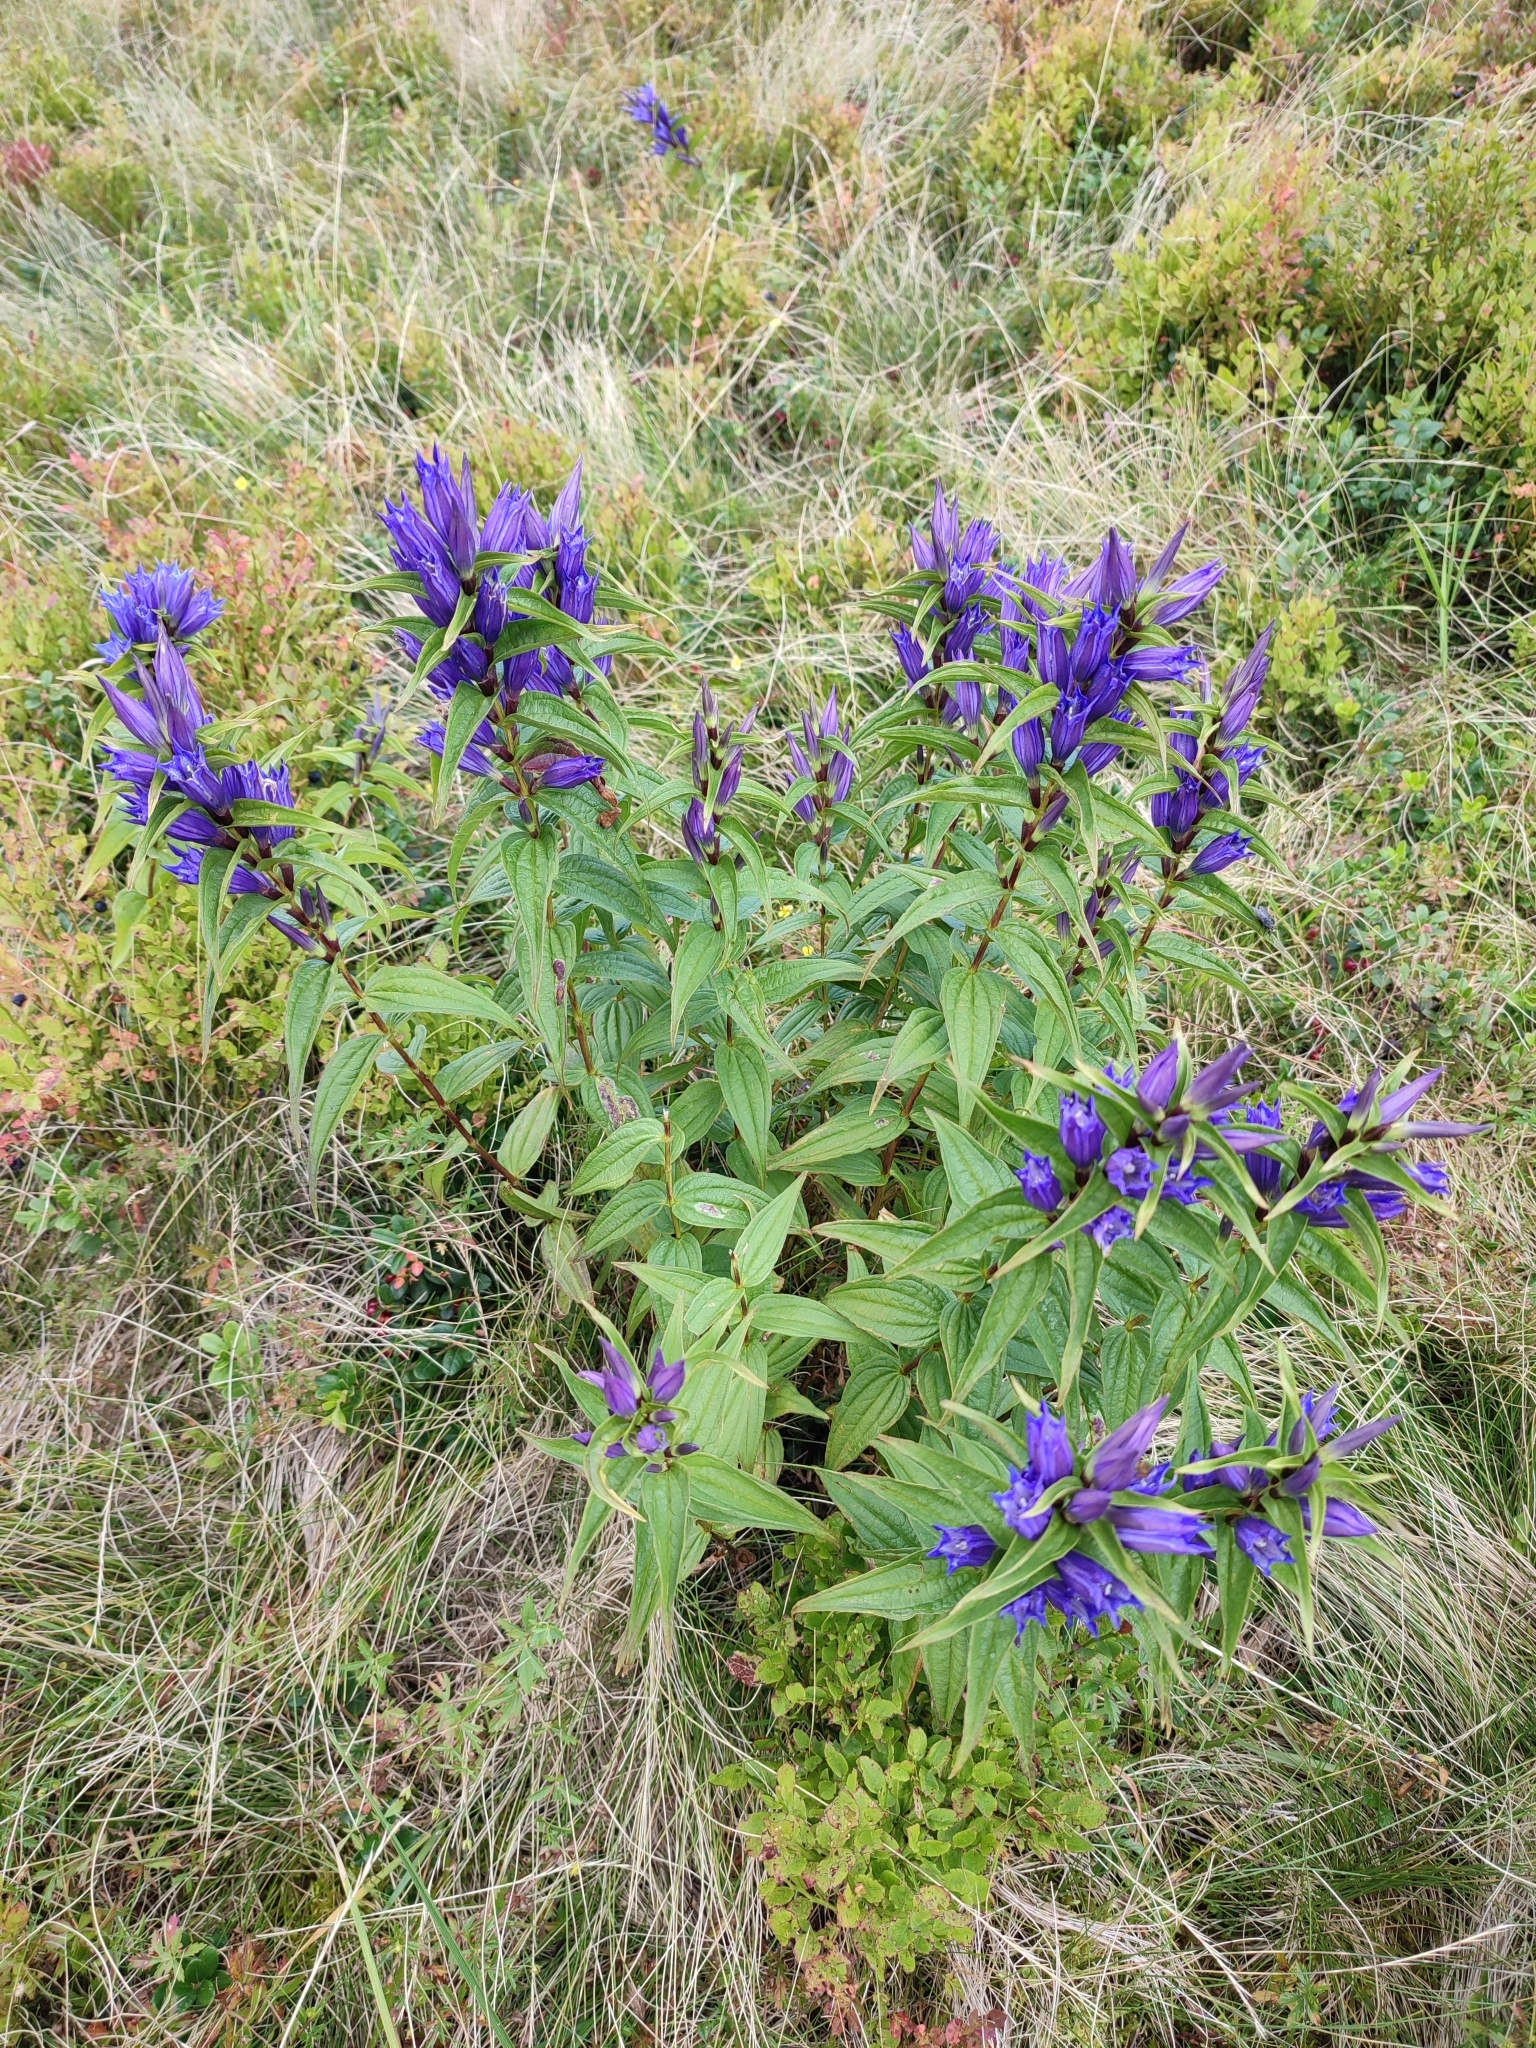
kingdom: Plantae
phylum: Tracheophyta
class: Magnoliopsida
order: Gentianales
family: Gentianaceae
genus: Gentiana
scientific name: Gentiana asclepiadea
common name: Willow gentian
